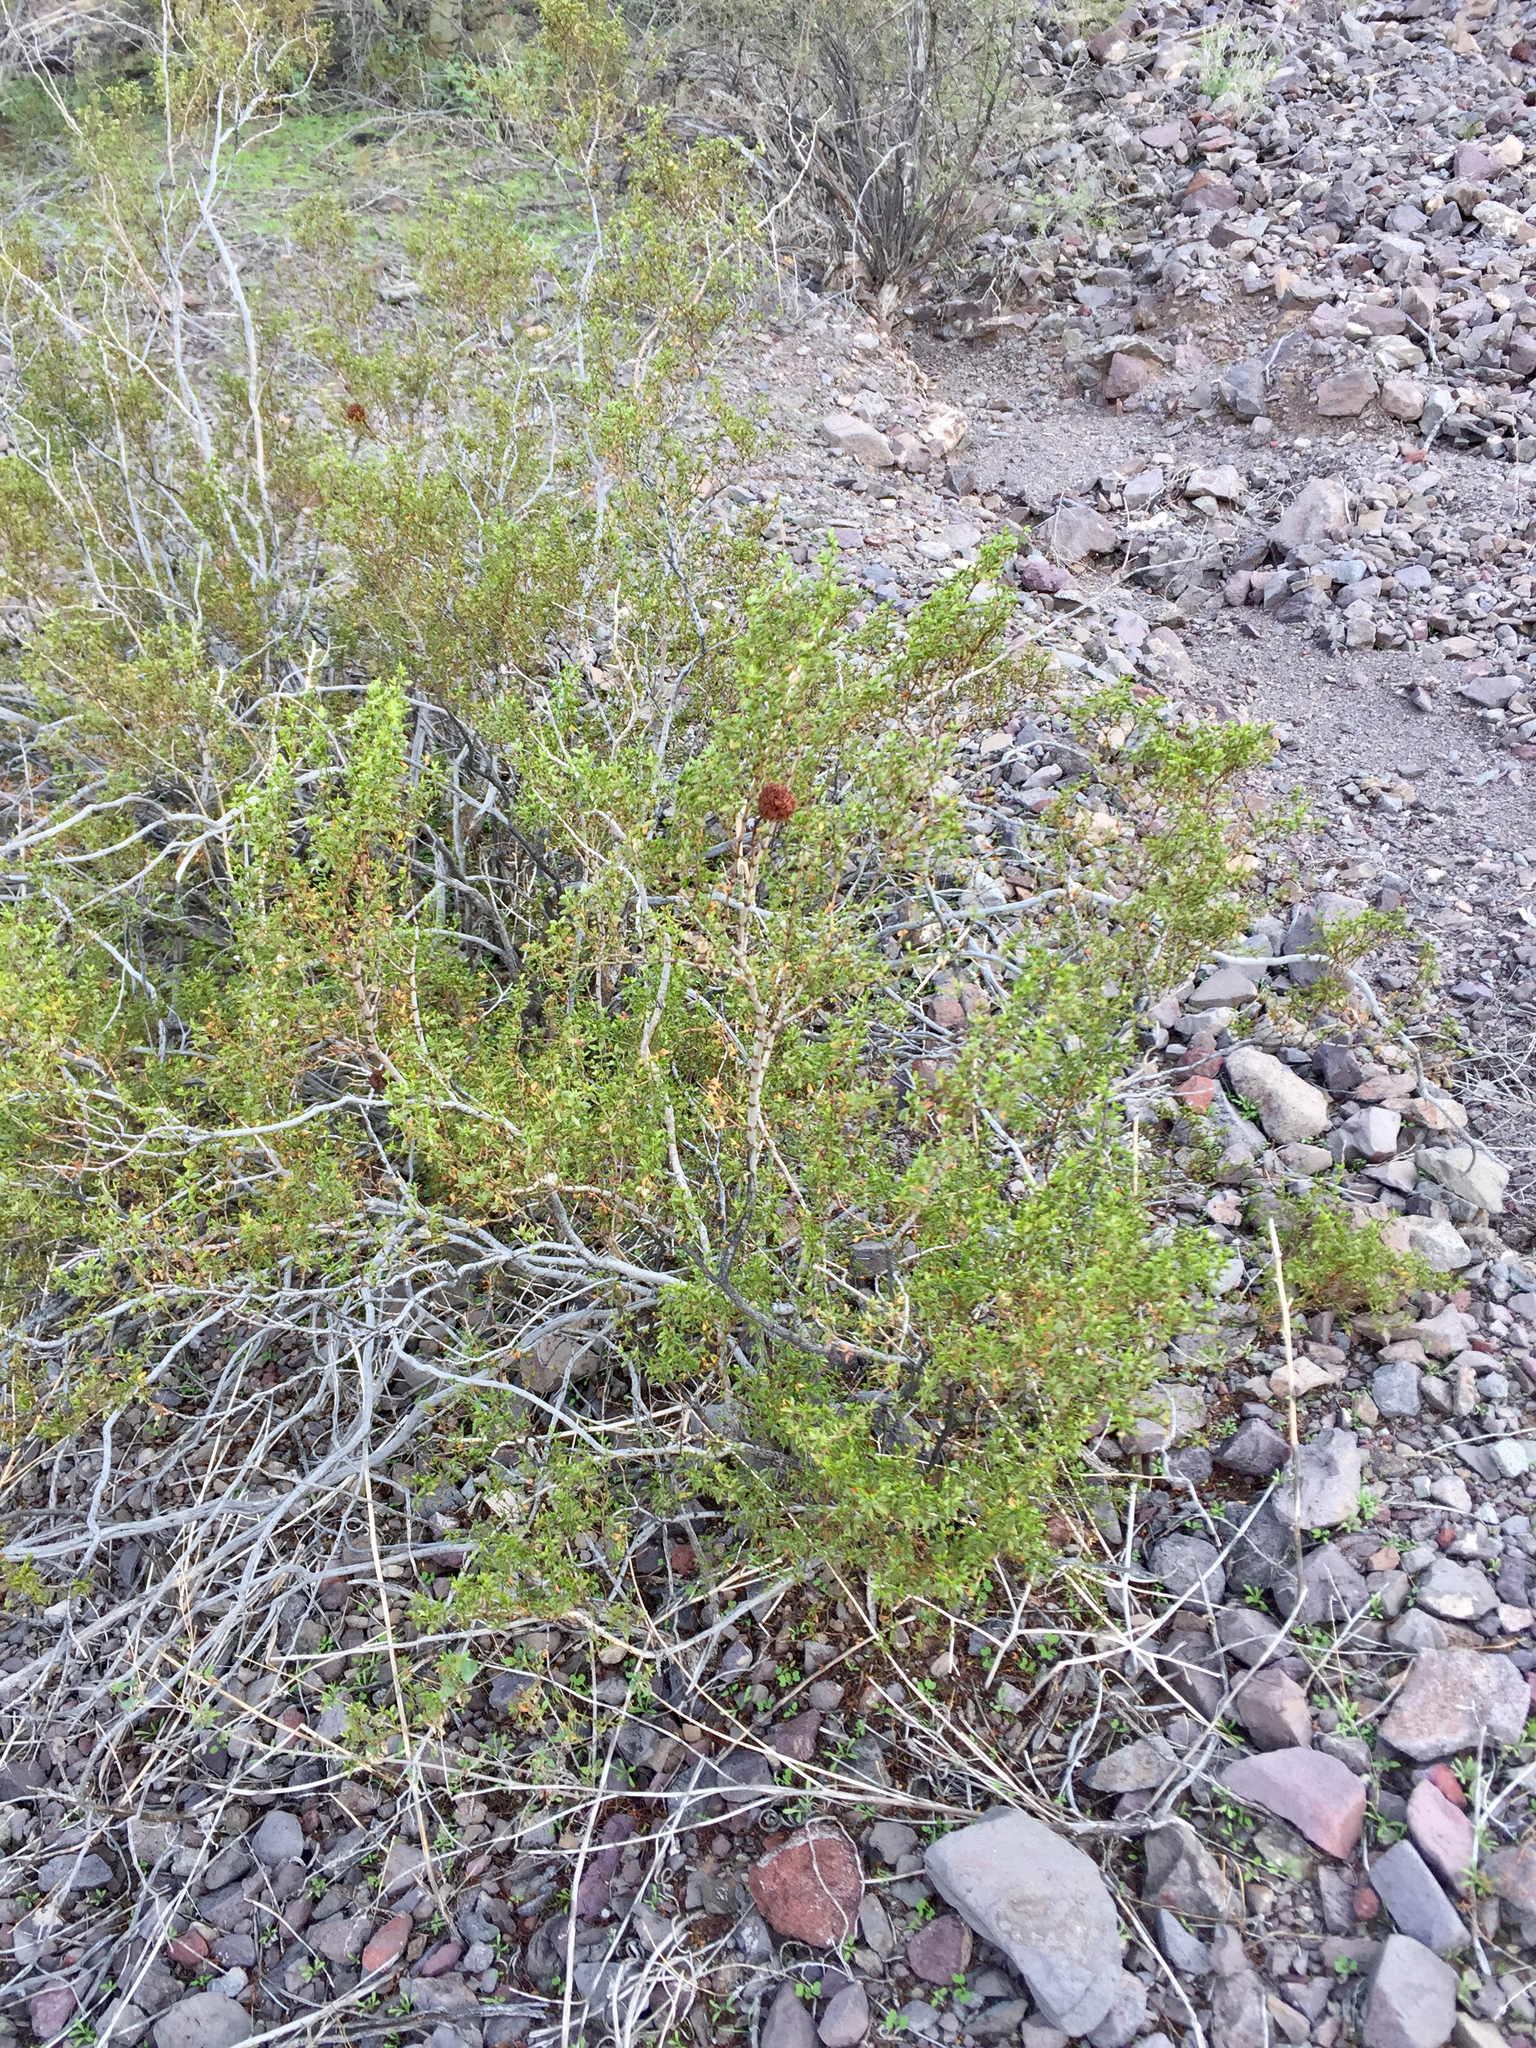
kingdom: Plantae
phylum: Tracheophyta
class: Magnoliopsida
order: Zygophyllales
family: Zygophyllaceae
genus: Larrea
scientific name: Larrea tridentata
